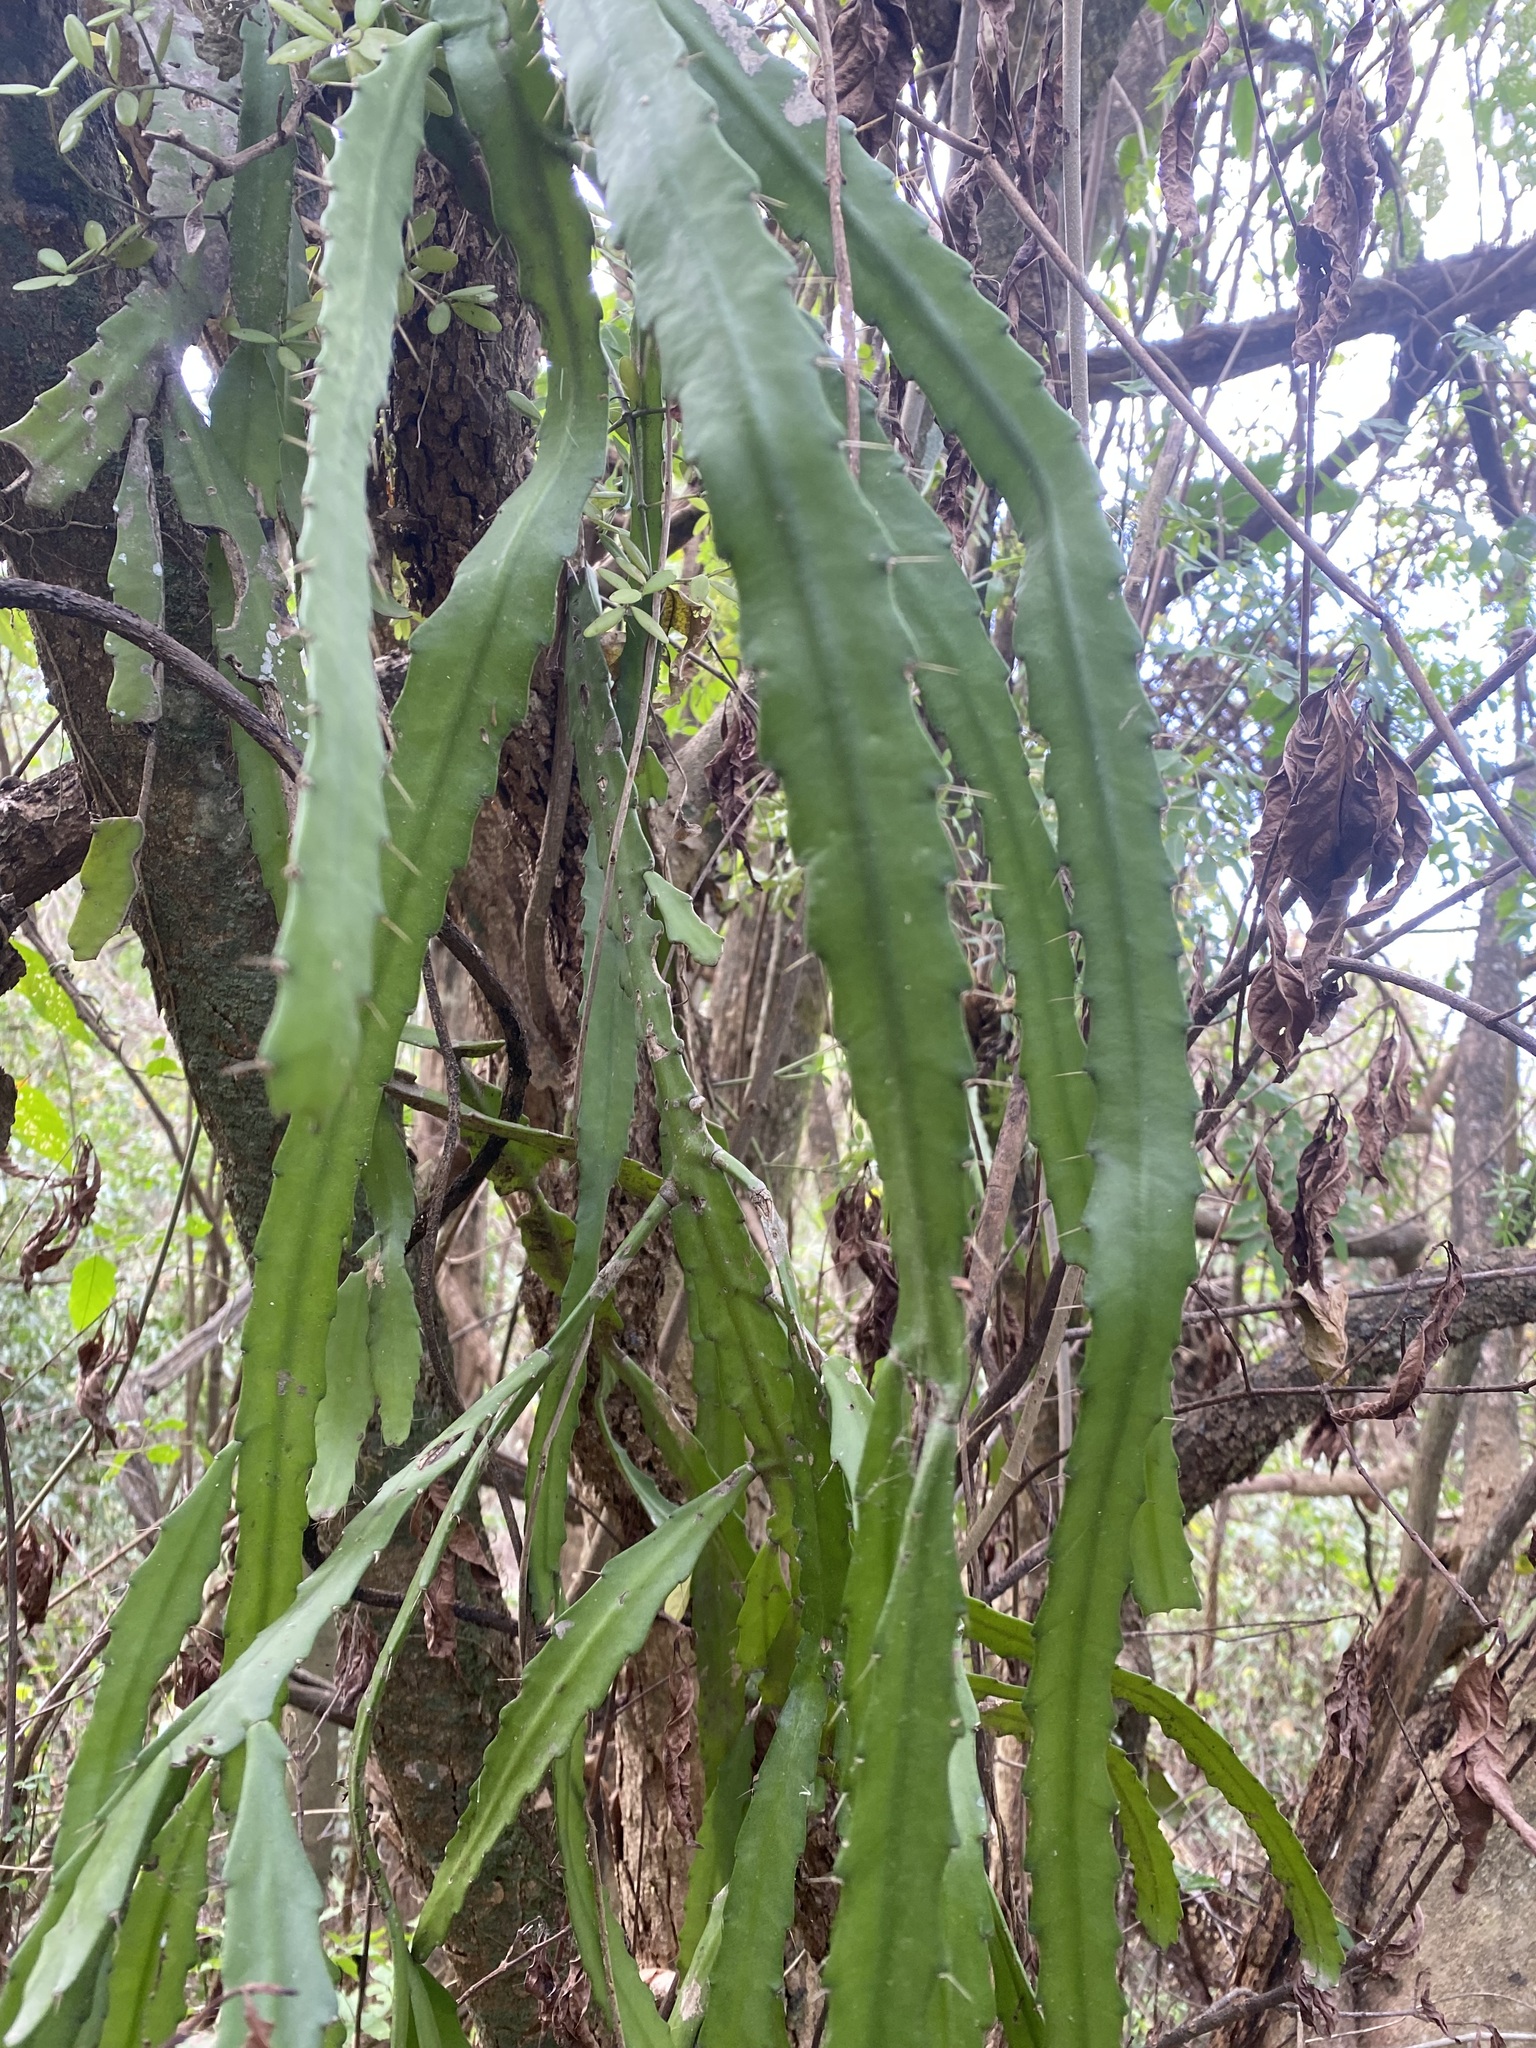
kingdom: Plantae
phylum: Tracheophyta
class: Magnoliopsida
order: Caryophyllales
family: Cactaceae
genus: Pfeiffera
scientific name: Pfeiffera monacantha
